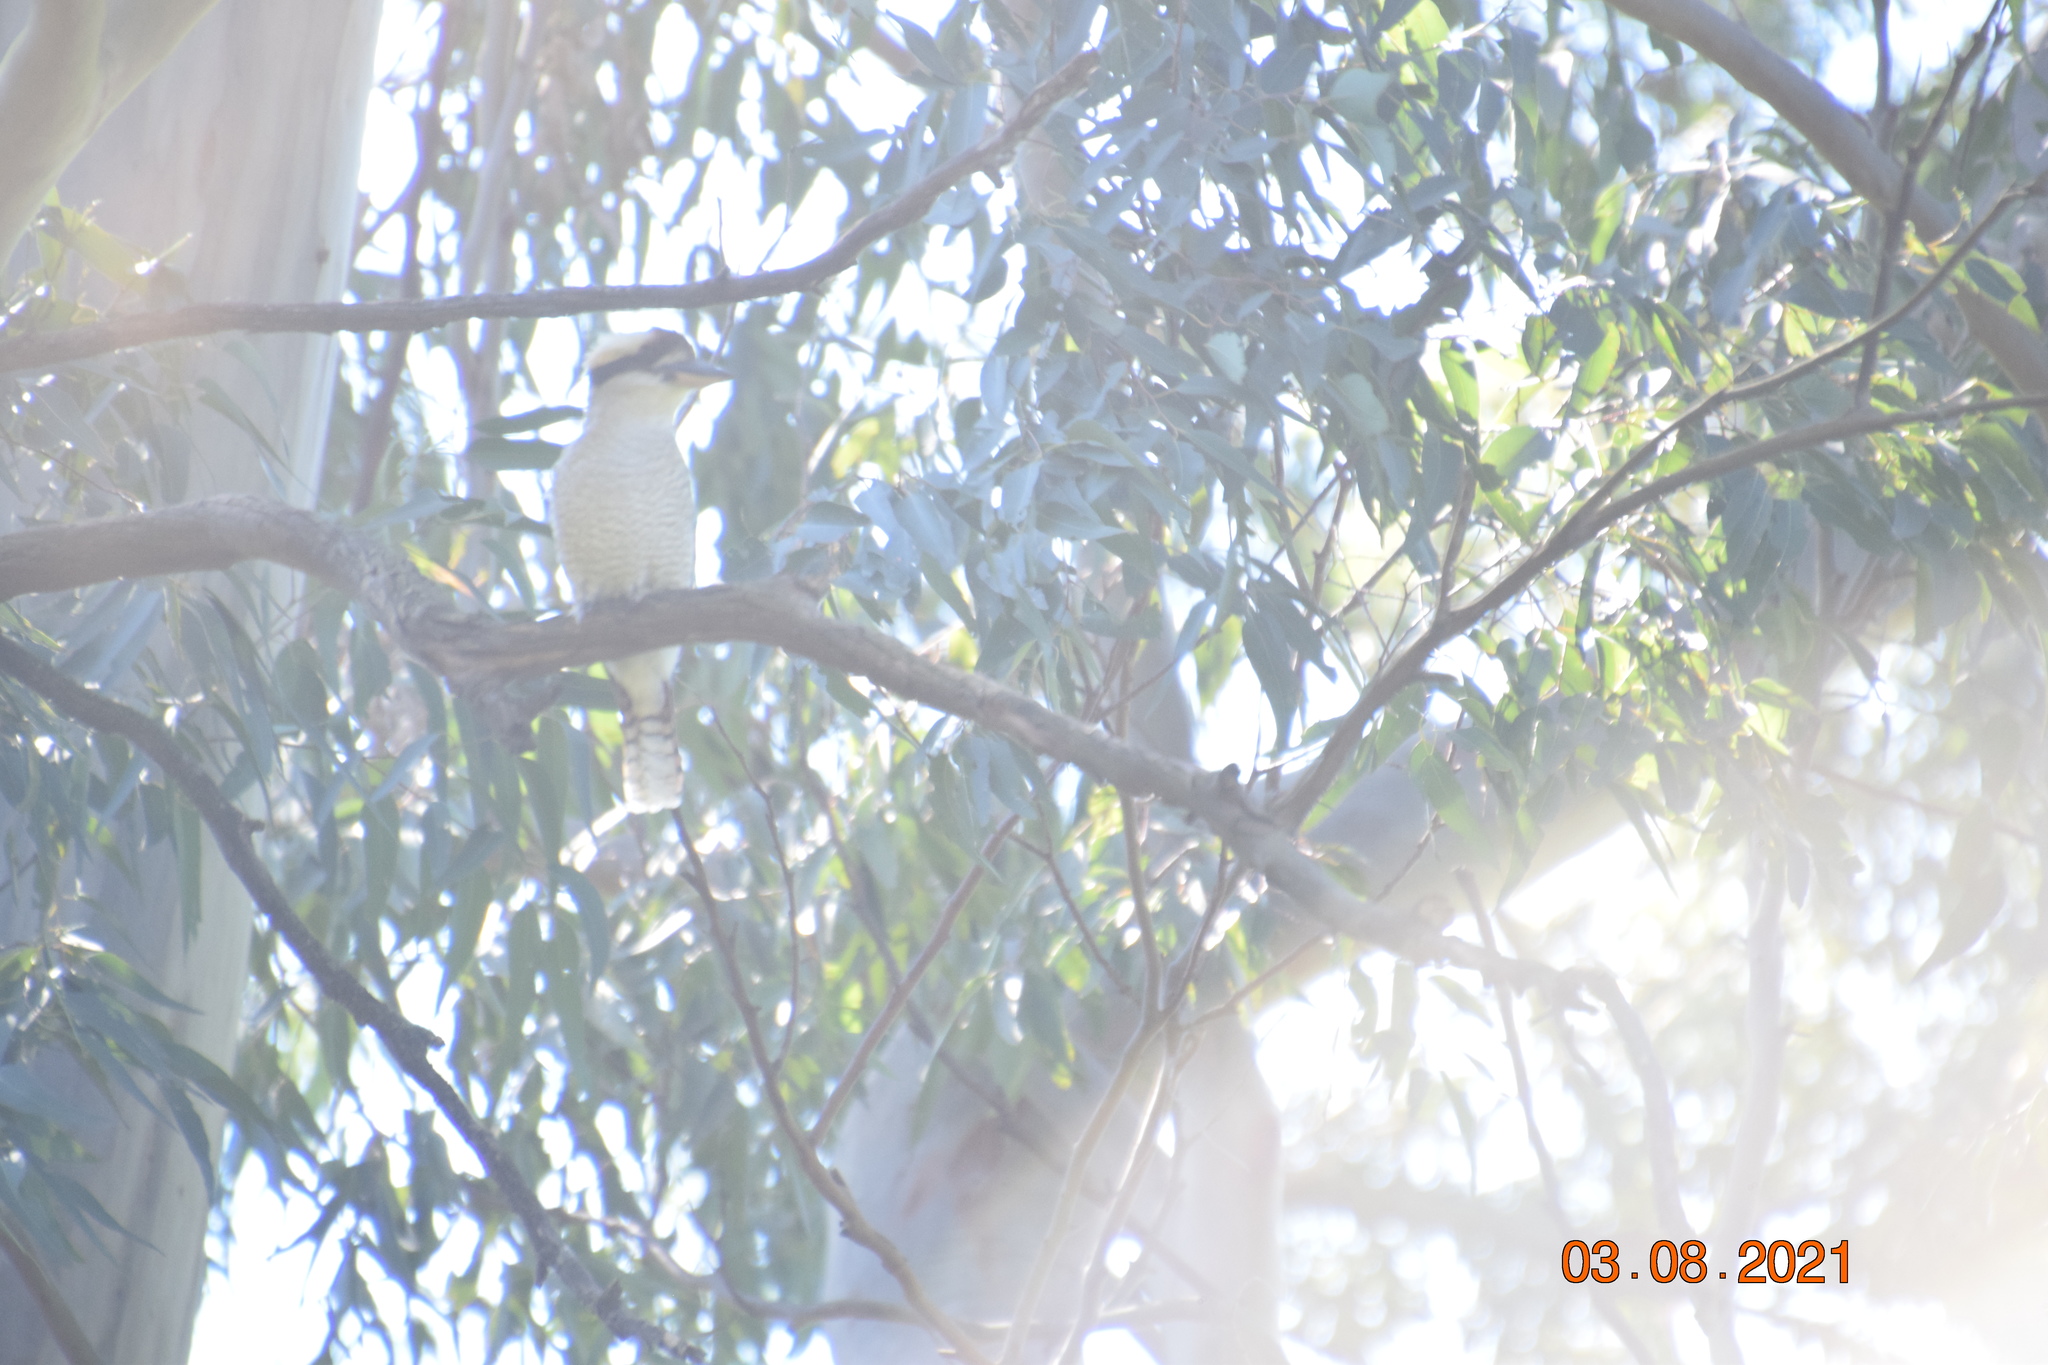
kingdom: Animalia
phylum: Chordata
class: Aves
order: Coraciiformes
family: Alcedinidae
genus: Dacelo
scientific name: Dacelo novaeguineae
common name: Laughing kookaburra
